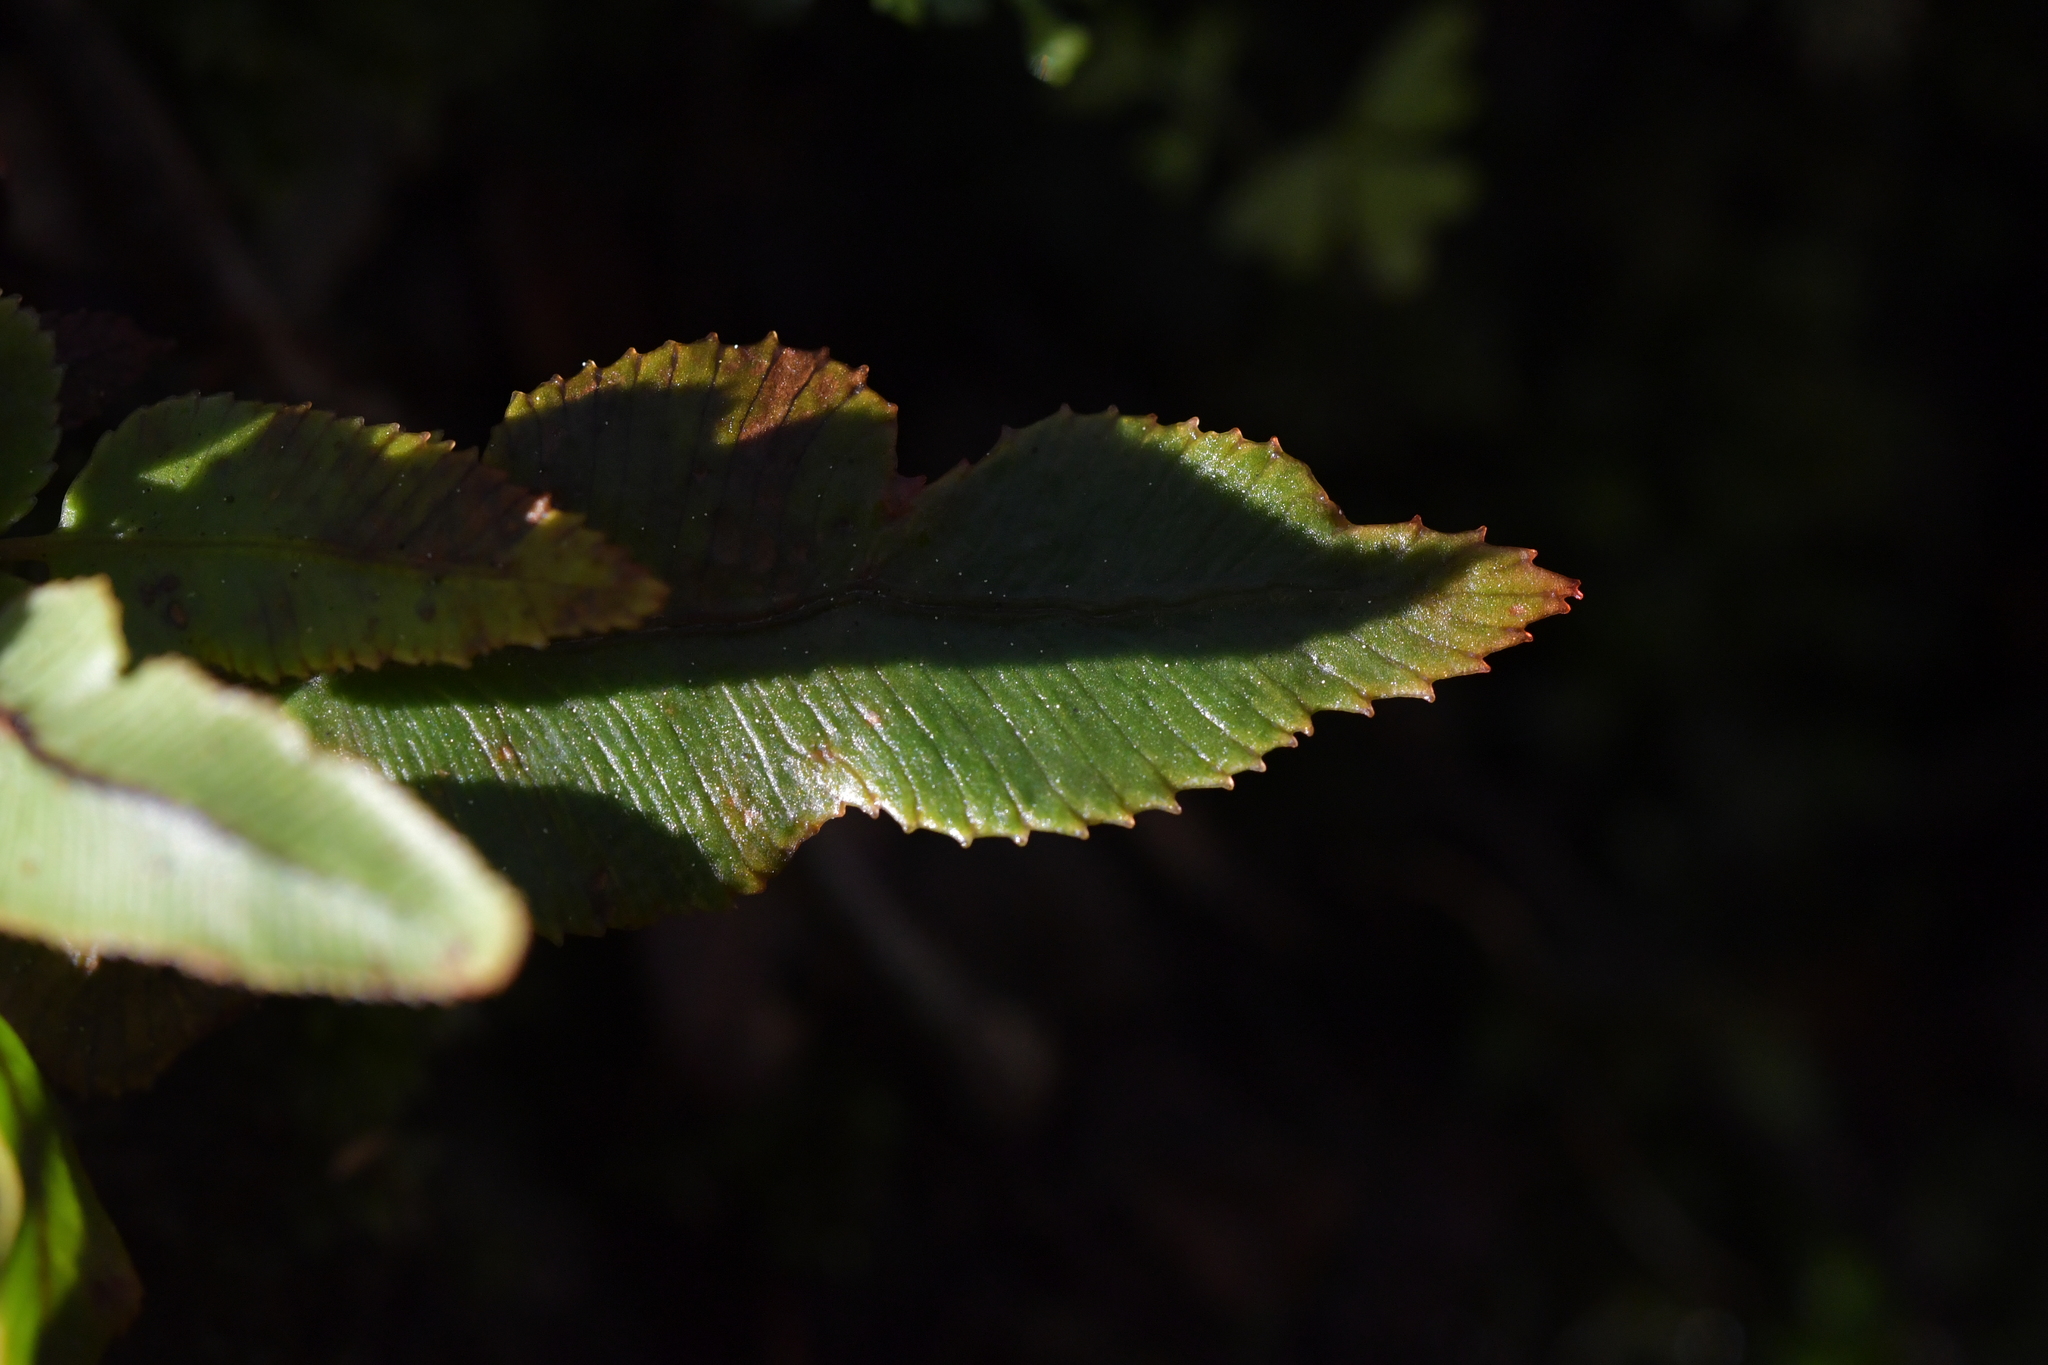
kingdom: Plantae
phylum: Tracheophyta
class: Polypodiopsida
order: Polypodiales
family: Blechnaceae
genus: Parablechnum
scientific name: Parablechnum procerum
